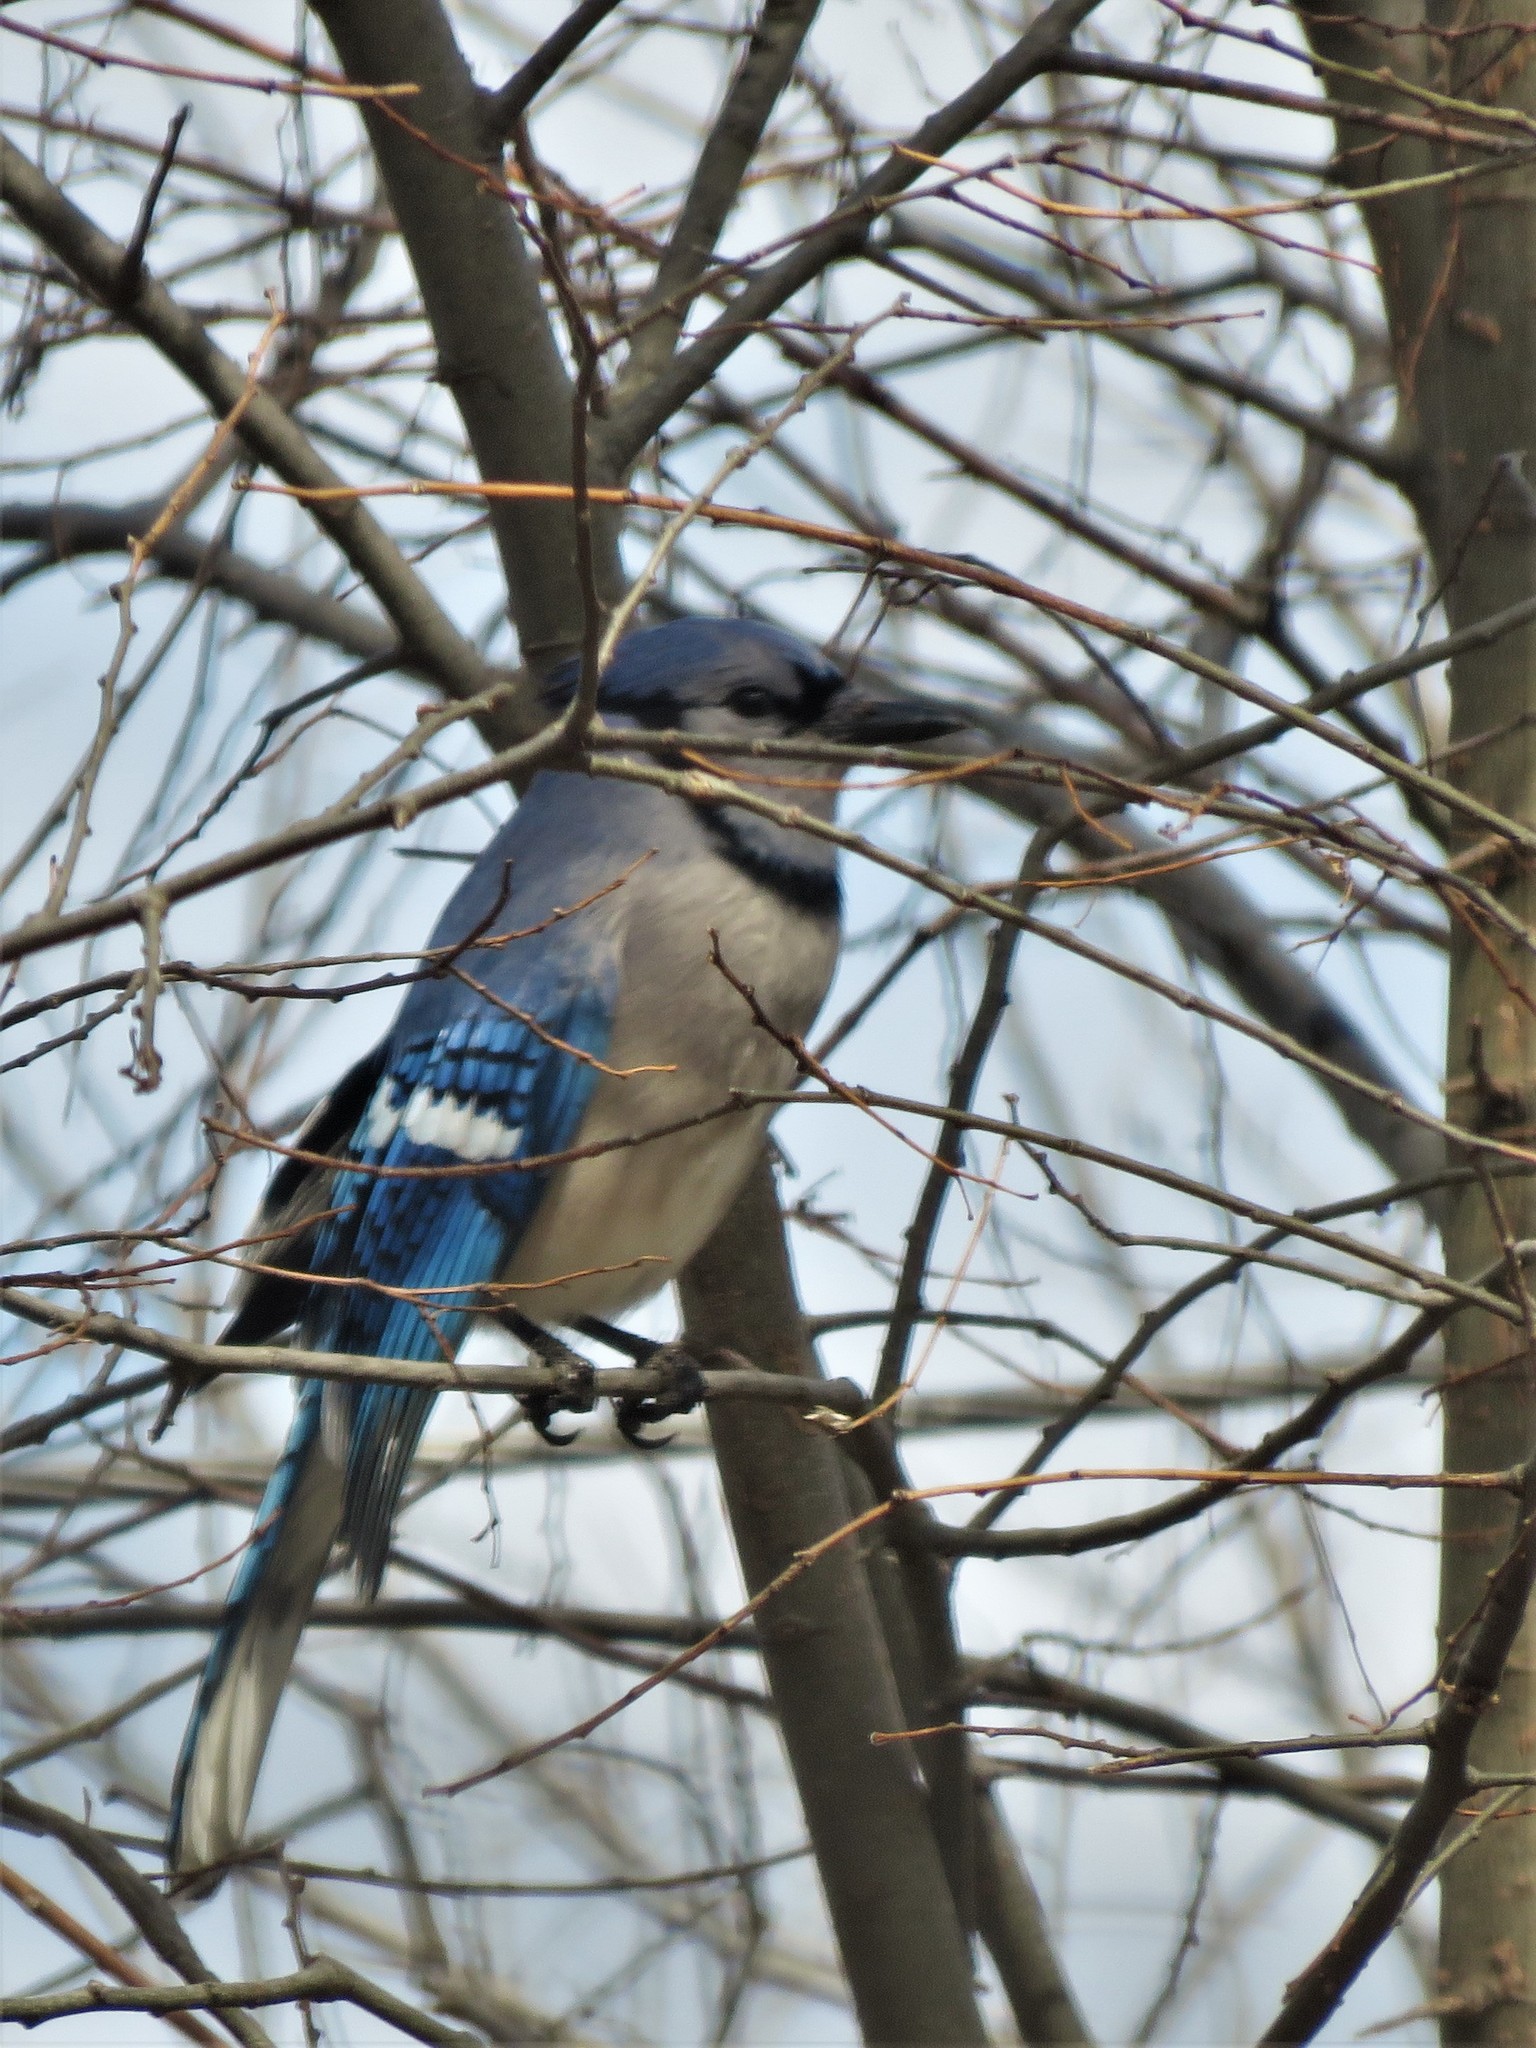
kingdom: Animalia
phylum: Chordata
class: Aves
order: Passeriformes
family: Corvidae
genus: Cyanocitta
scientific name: Cyanocitta cristata
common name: Blue jay
